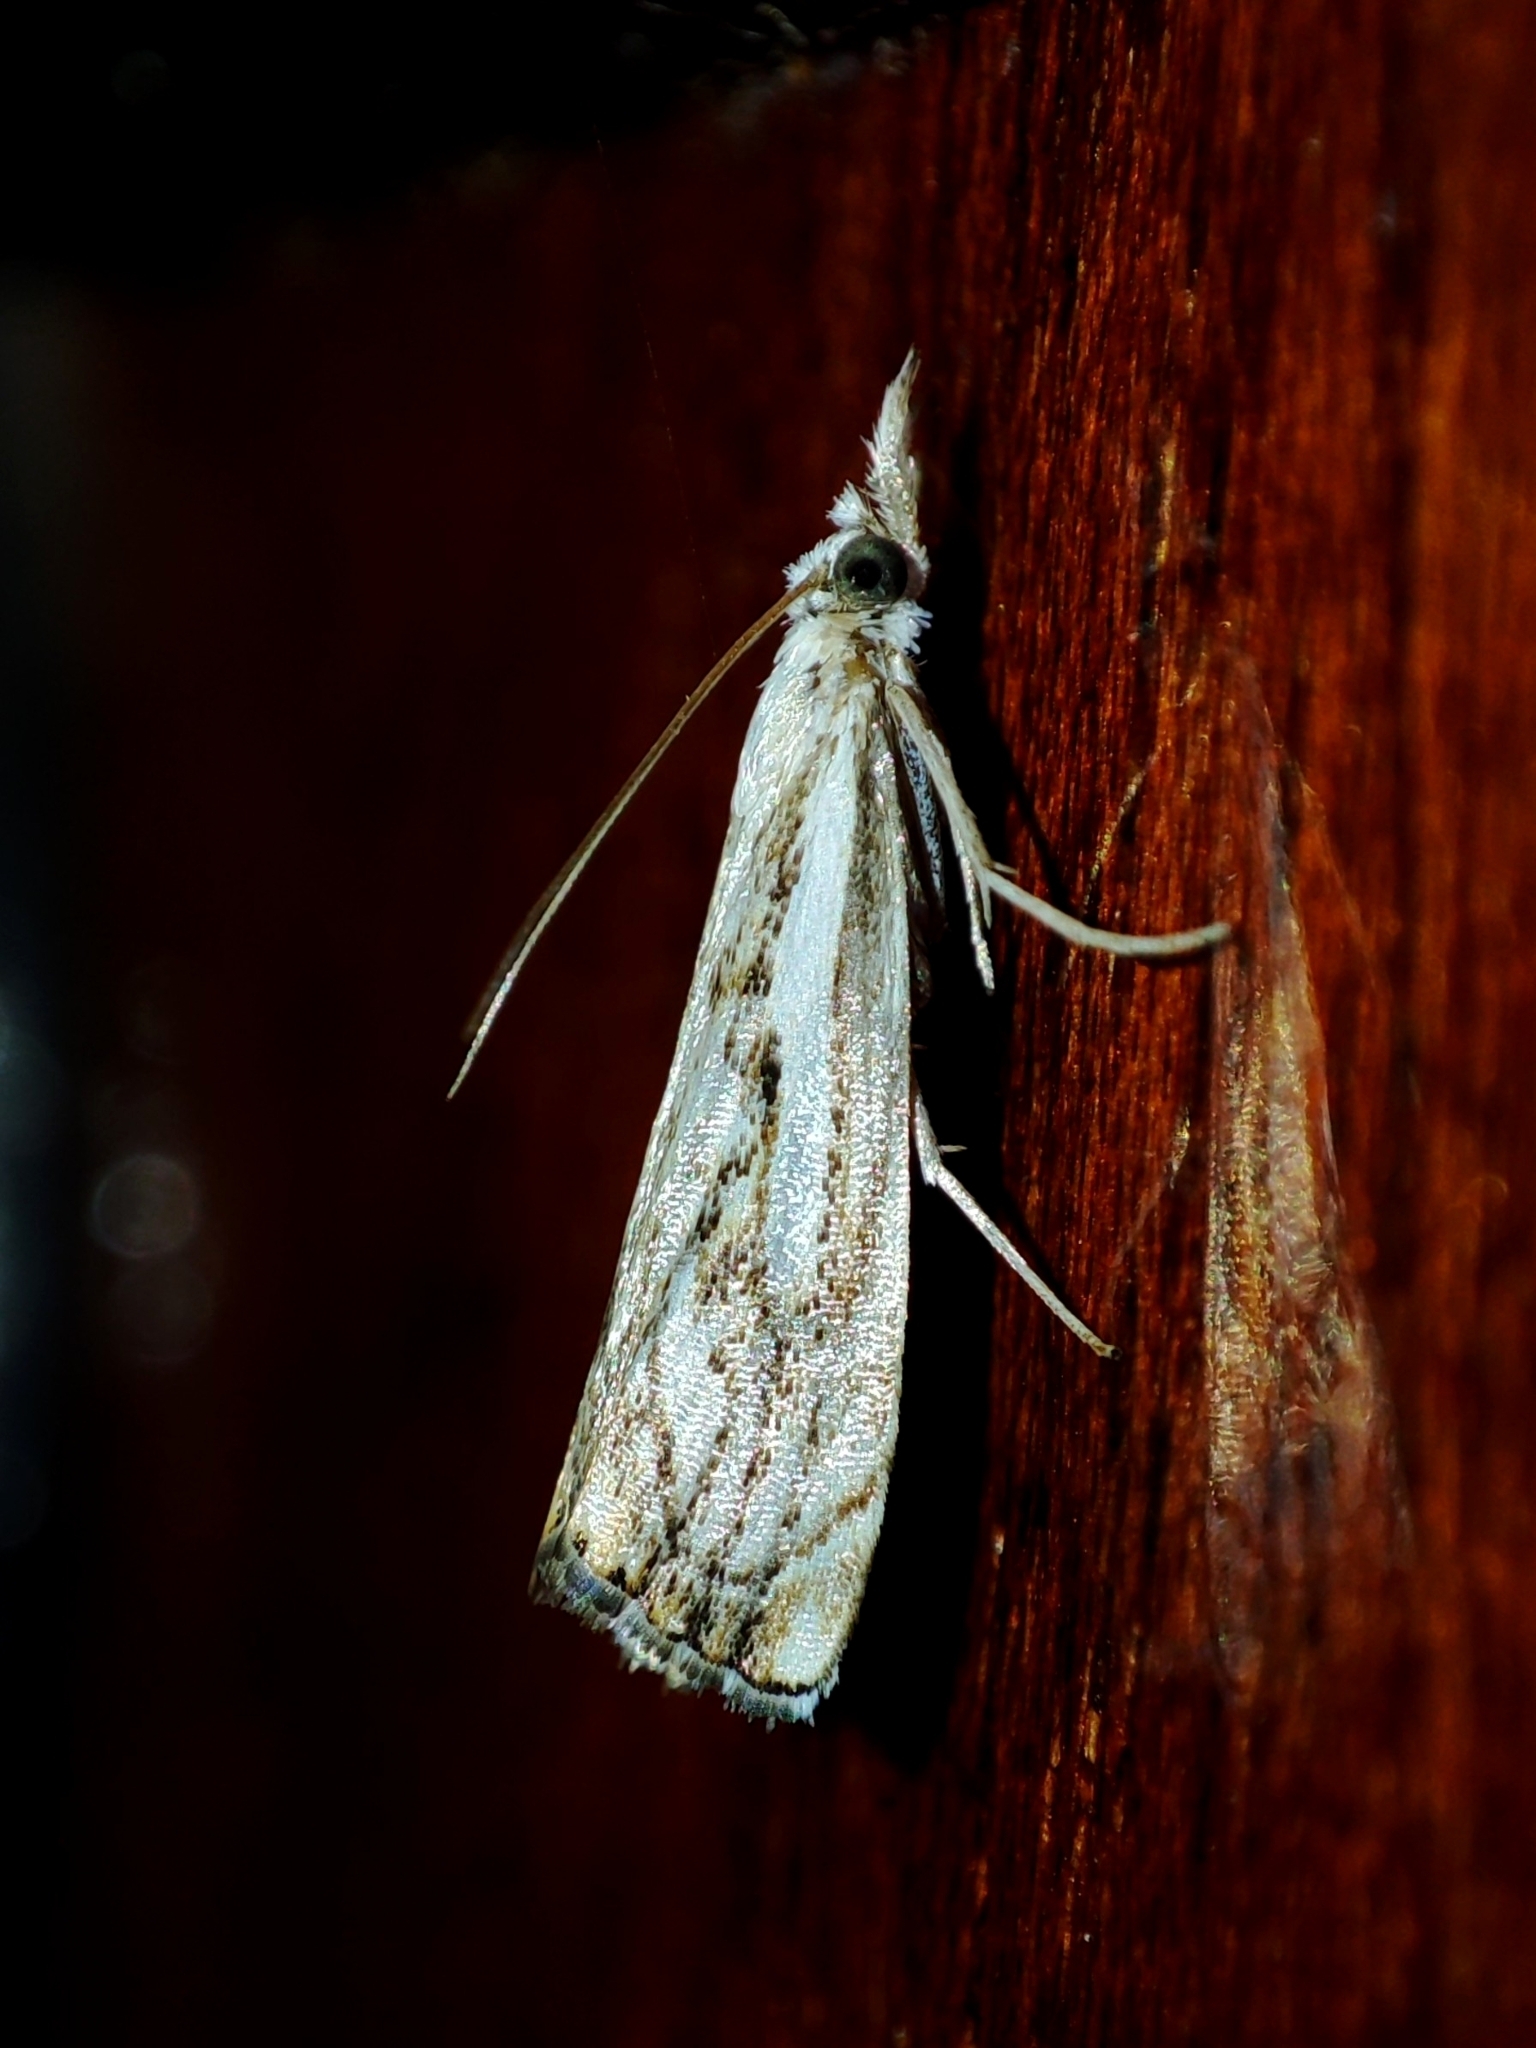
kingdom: Animalia
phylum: Arthropoda
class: Insecta
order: Lepidoptera
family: Crambidae
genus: Catoptria
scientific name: Catoptria falsella
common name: Chequered grass-veneer
